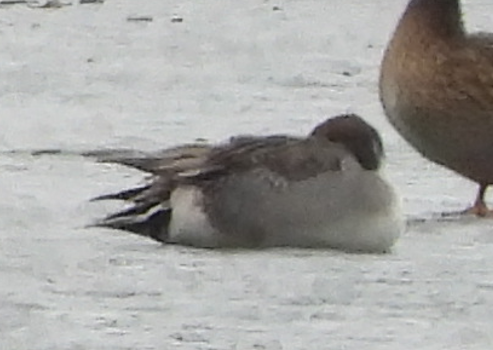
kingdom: Animalia
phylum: Chordata
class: Aves
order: Anseriformes
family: Anatidae
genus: Anas
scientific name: Anas acuta
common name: Northern pintail
